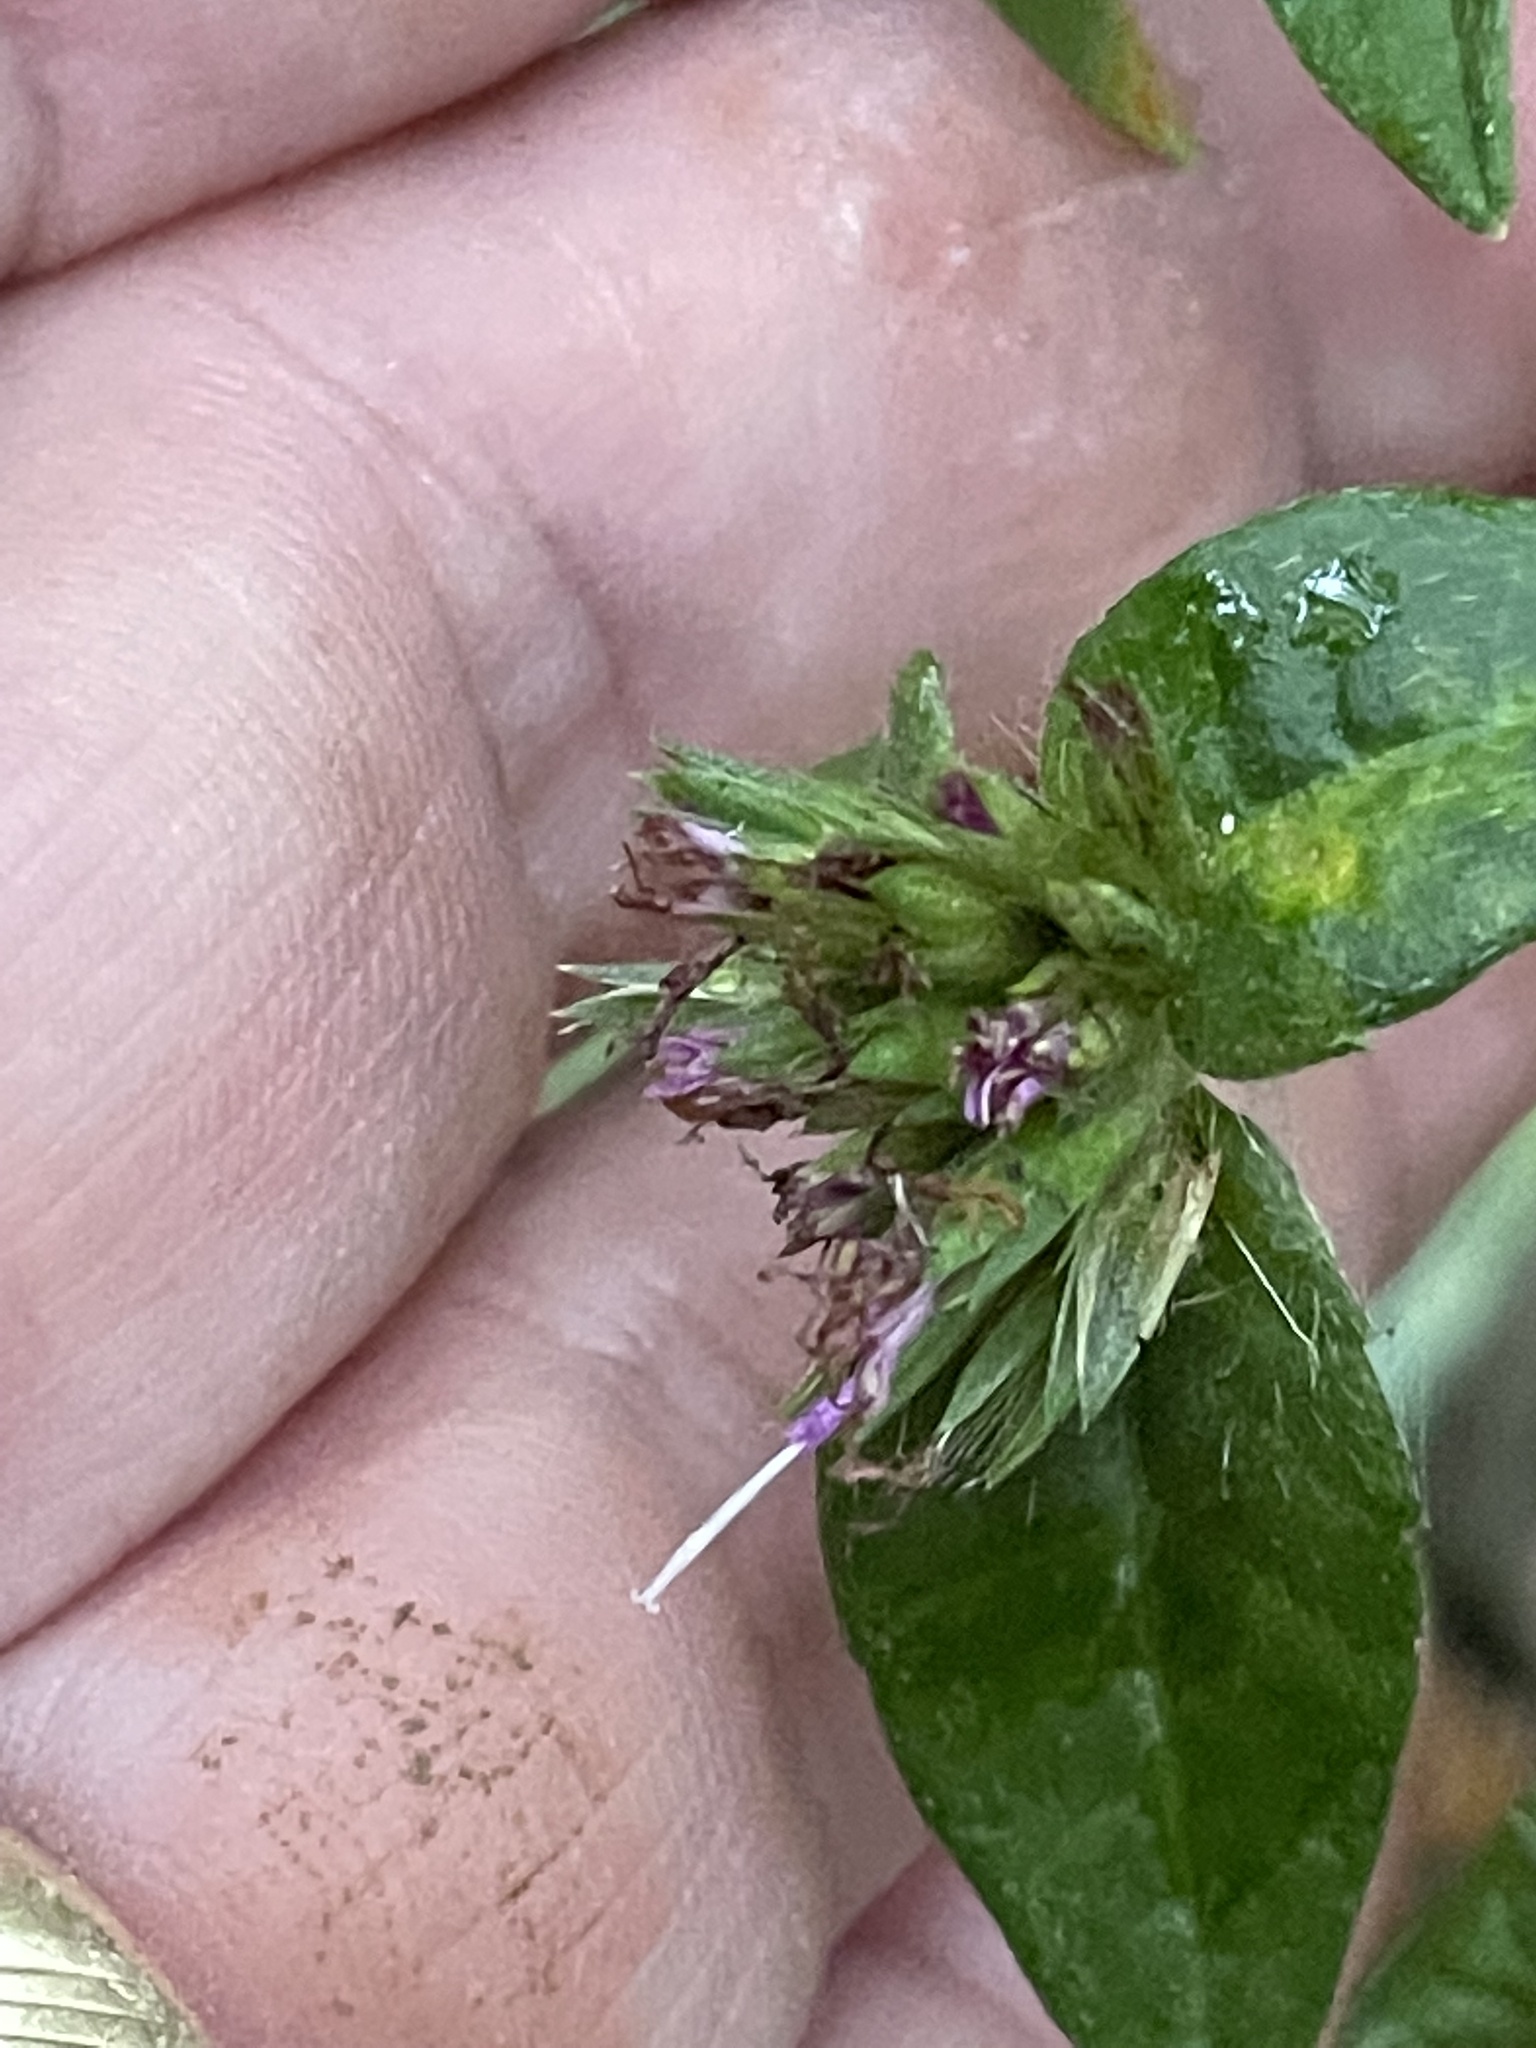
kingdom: Plantae
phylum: Tracheophyta
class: Magnoliopsida
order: Asterales
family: Asteraceae
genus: Elephantopus
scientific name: Elephantopus carolinianus
